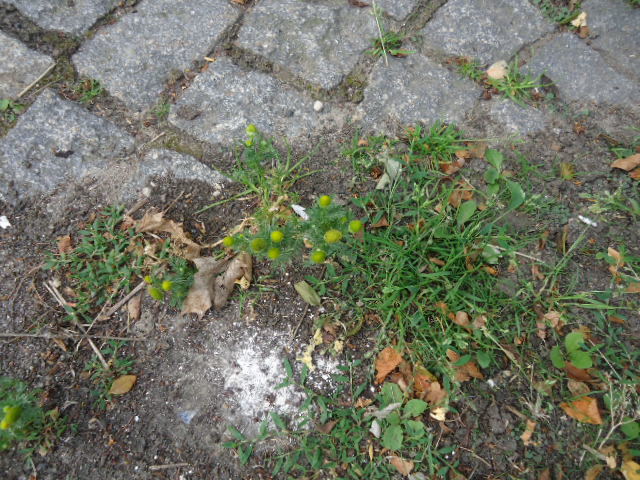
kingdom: Plantae
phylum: Tracheophyta
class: Magnoliopsida
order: Asterales
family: Asteraceae
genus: Matricaria
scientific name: Matricaria discoidea
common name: Disc mayweed
